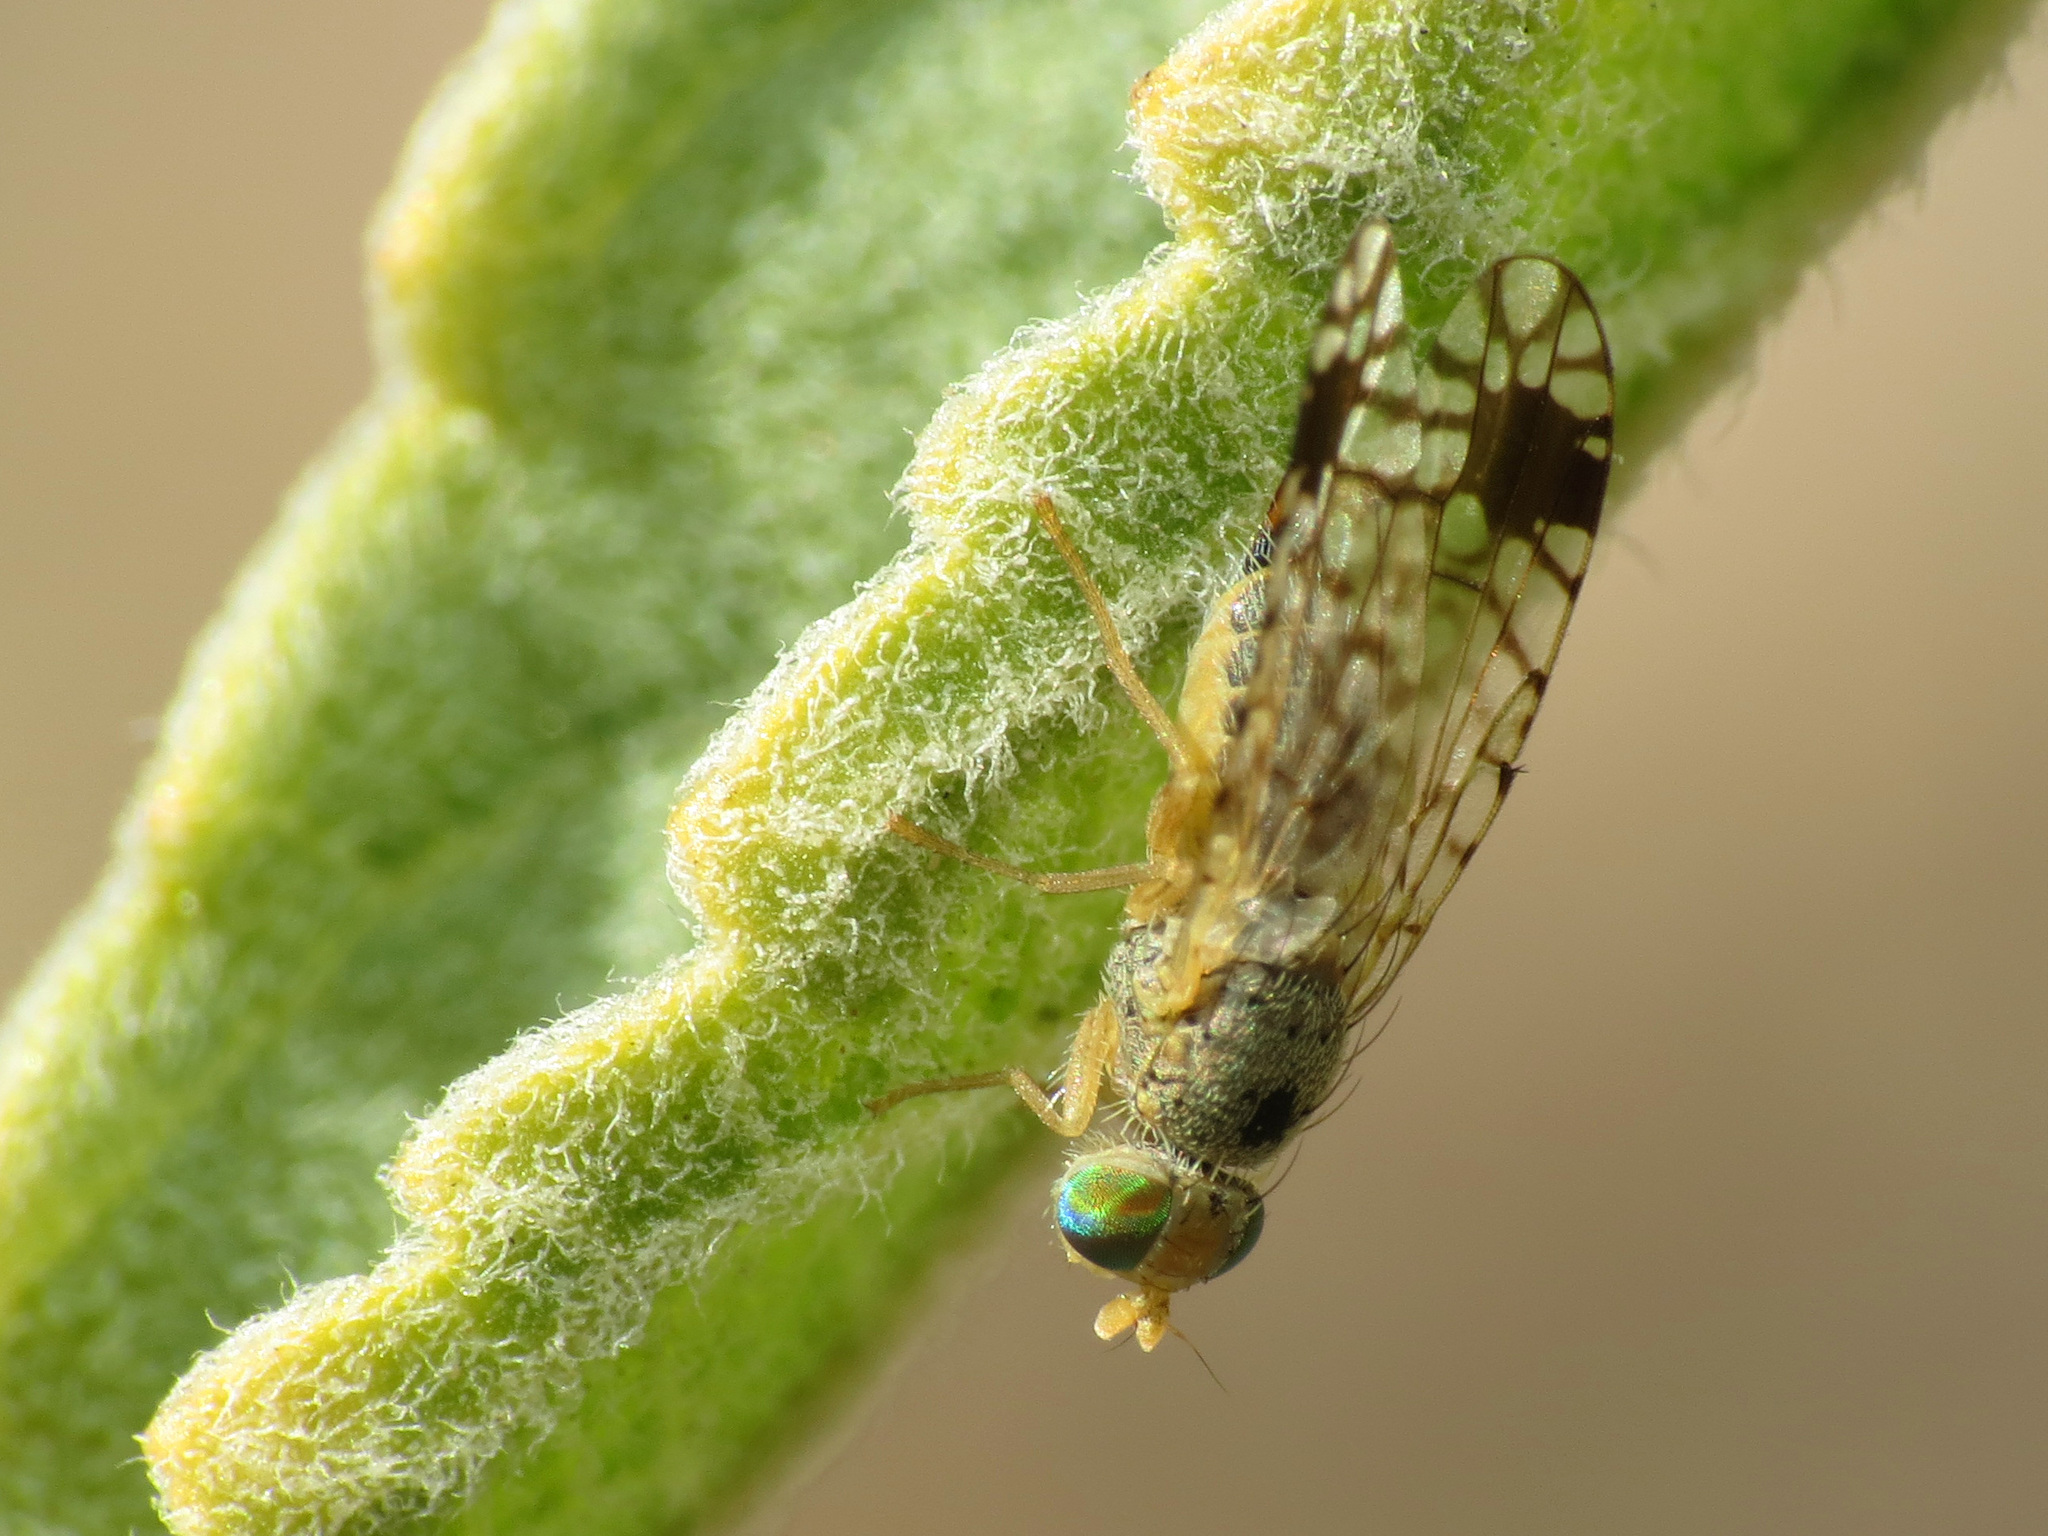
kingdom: Animalia
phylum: Arthropoda
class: Insecta
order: Diptera
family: Tephritidae
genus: Euarestoides
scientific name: Euarestoides acutangulus
